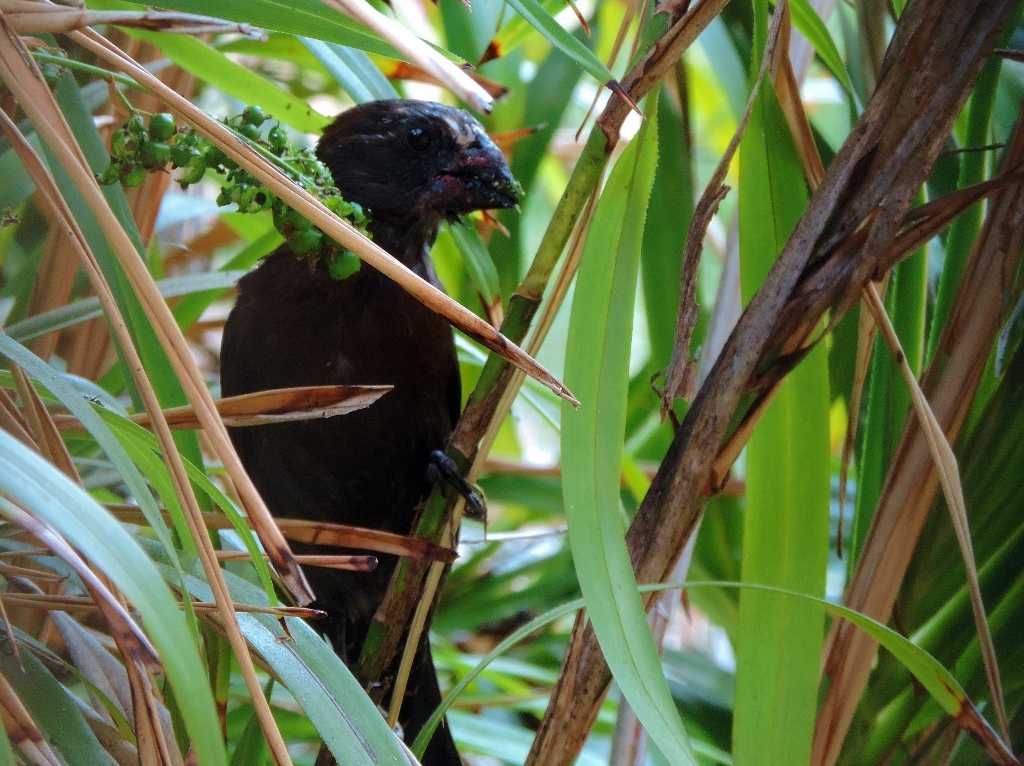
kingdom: Animalia
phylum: Chordata
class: Aves
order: Passeriformes
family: Ploceidae
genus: Amblyospiza
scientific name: Amblyospiza albifrons
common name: Thick-billed weaver
